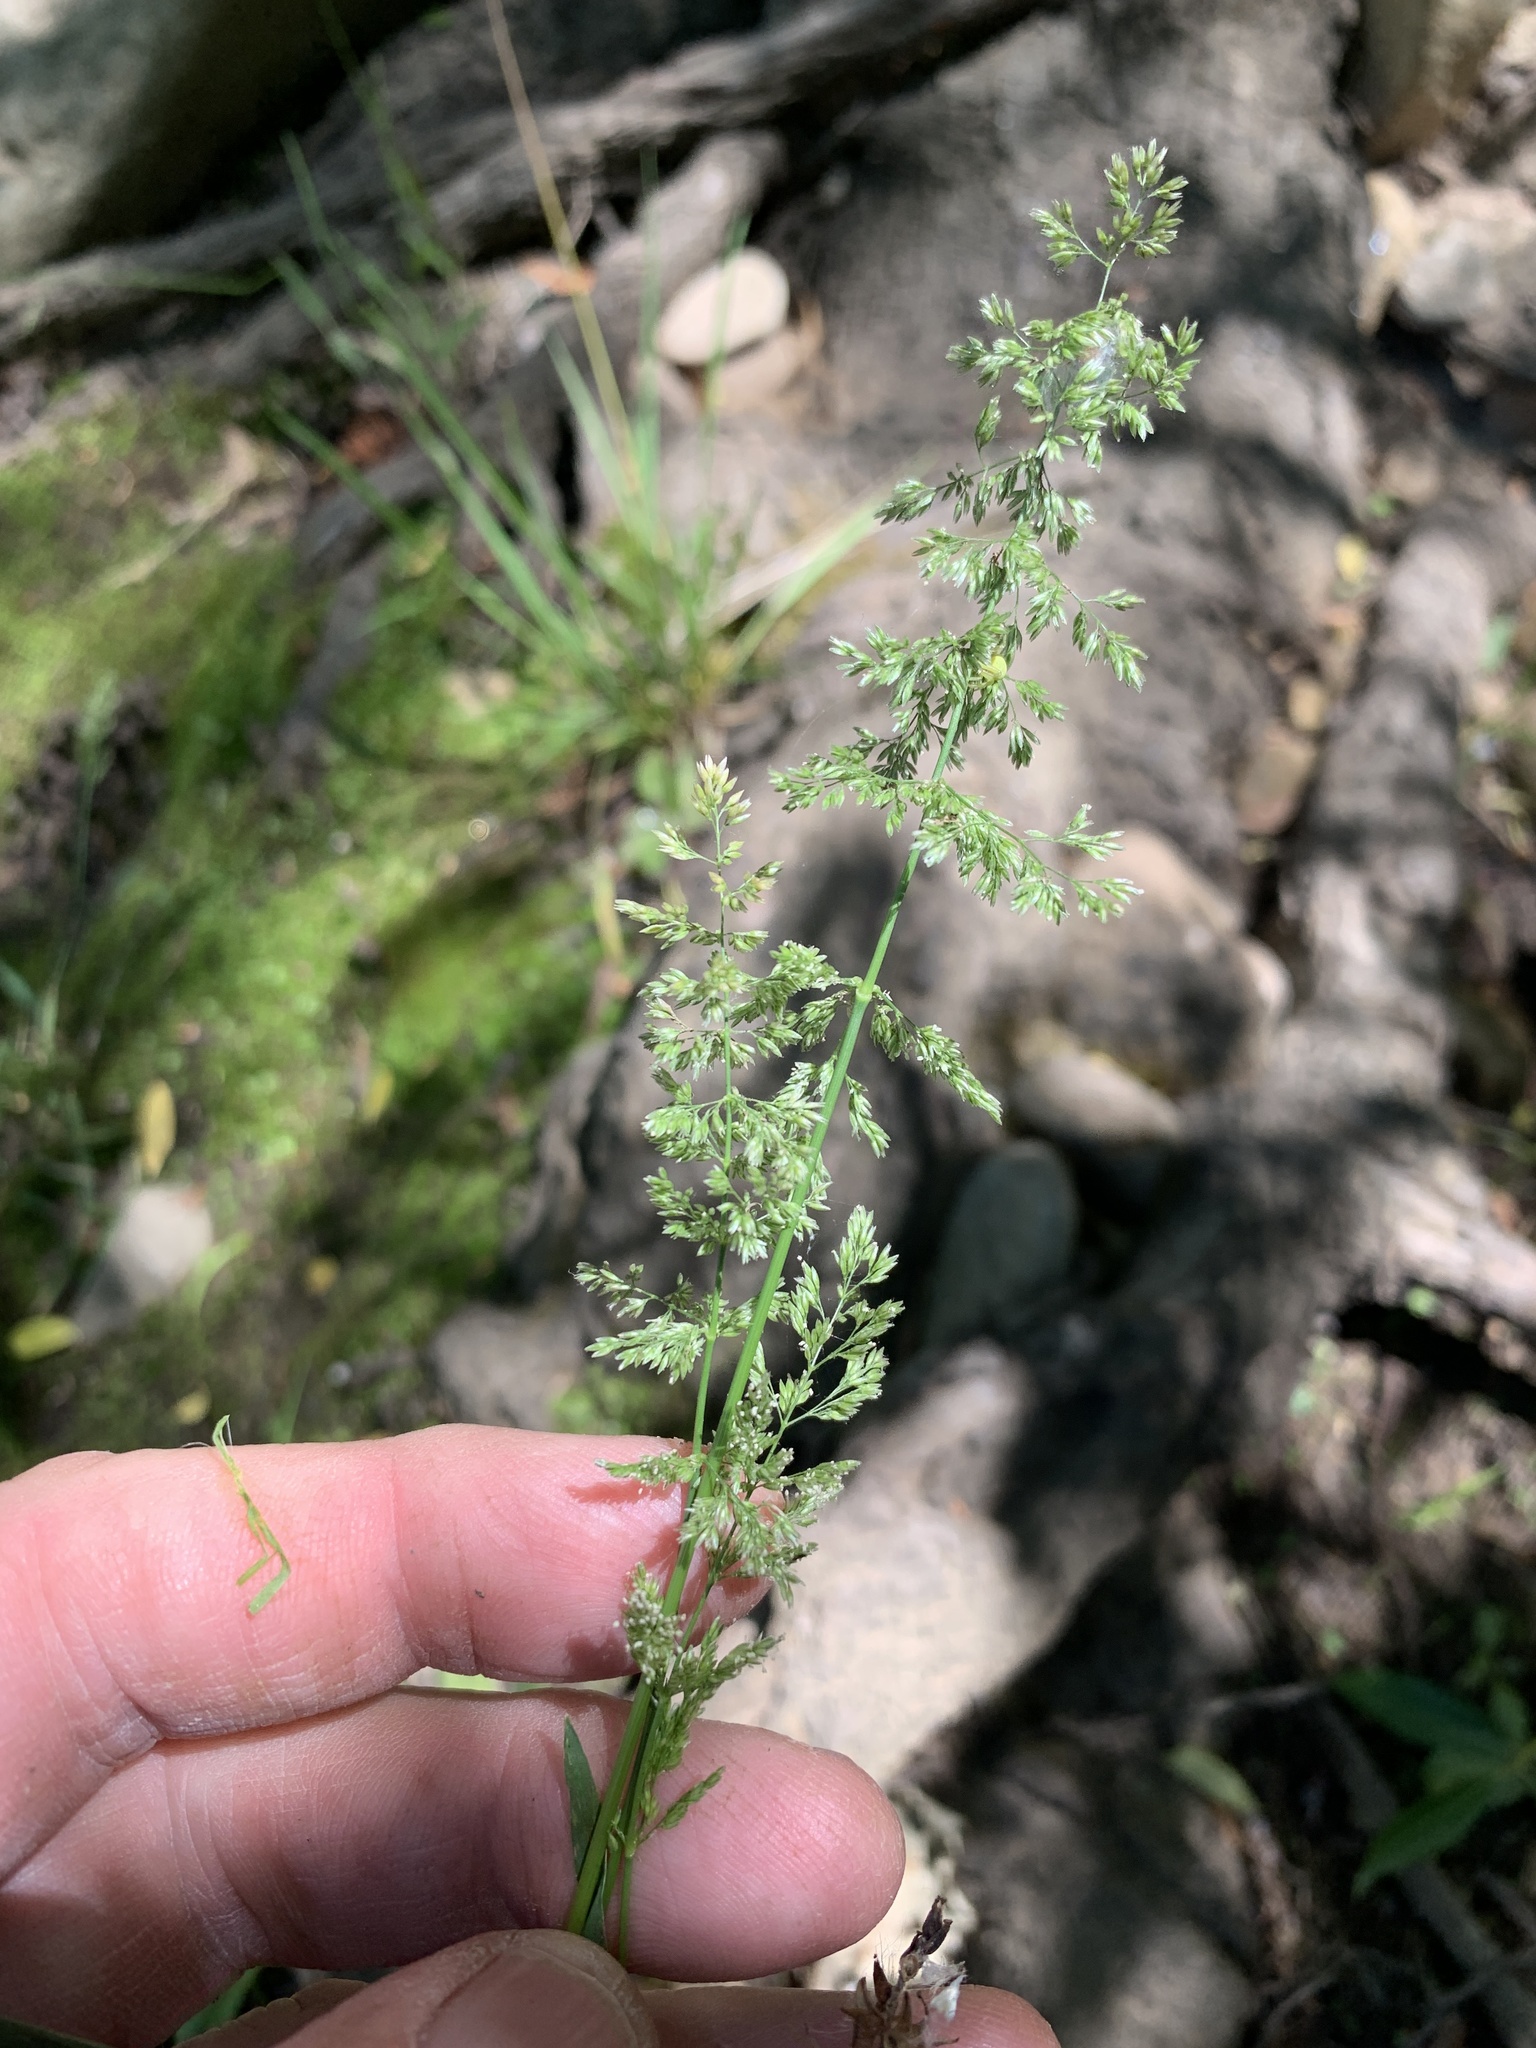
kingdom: Plantae
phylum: Tracheophyta
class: Liliopsida
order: Poales
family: Poaceae
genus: Polypogon
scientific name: Polypogon viridis
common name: Water bent
